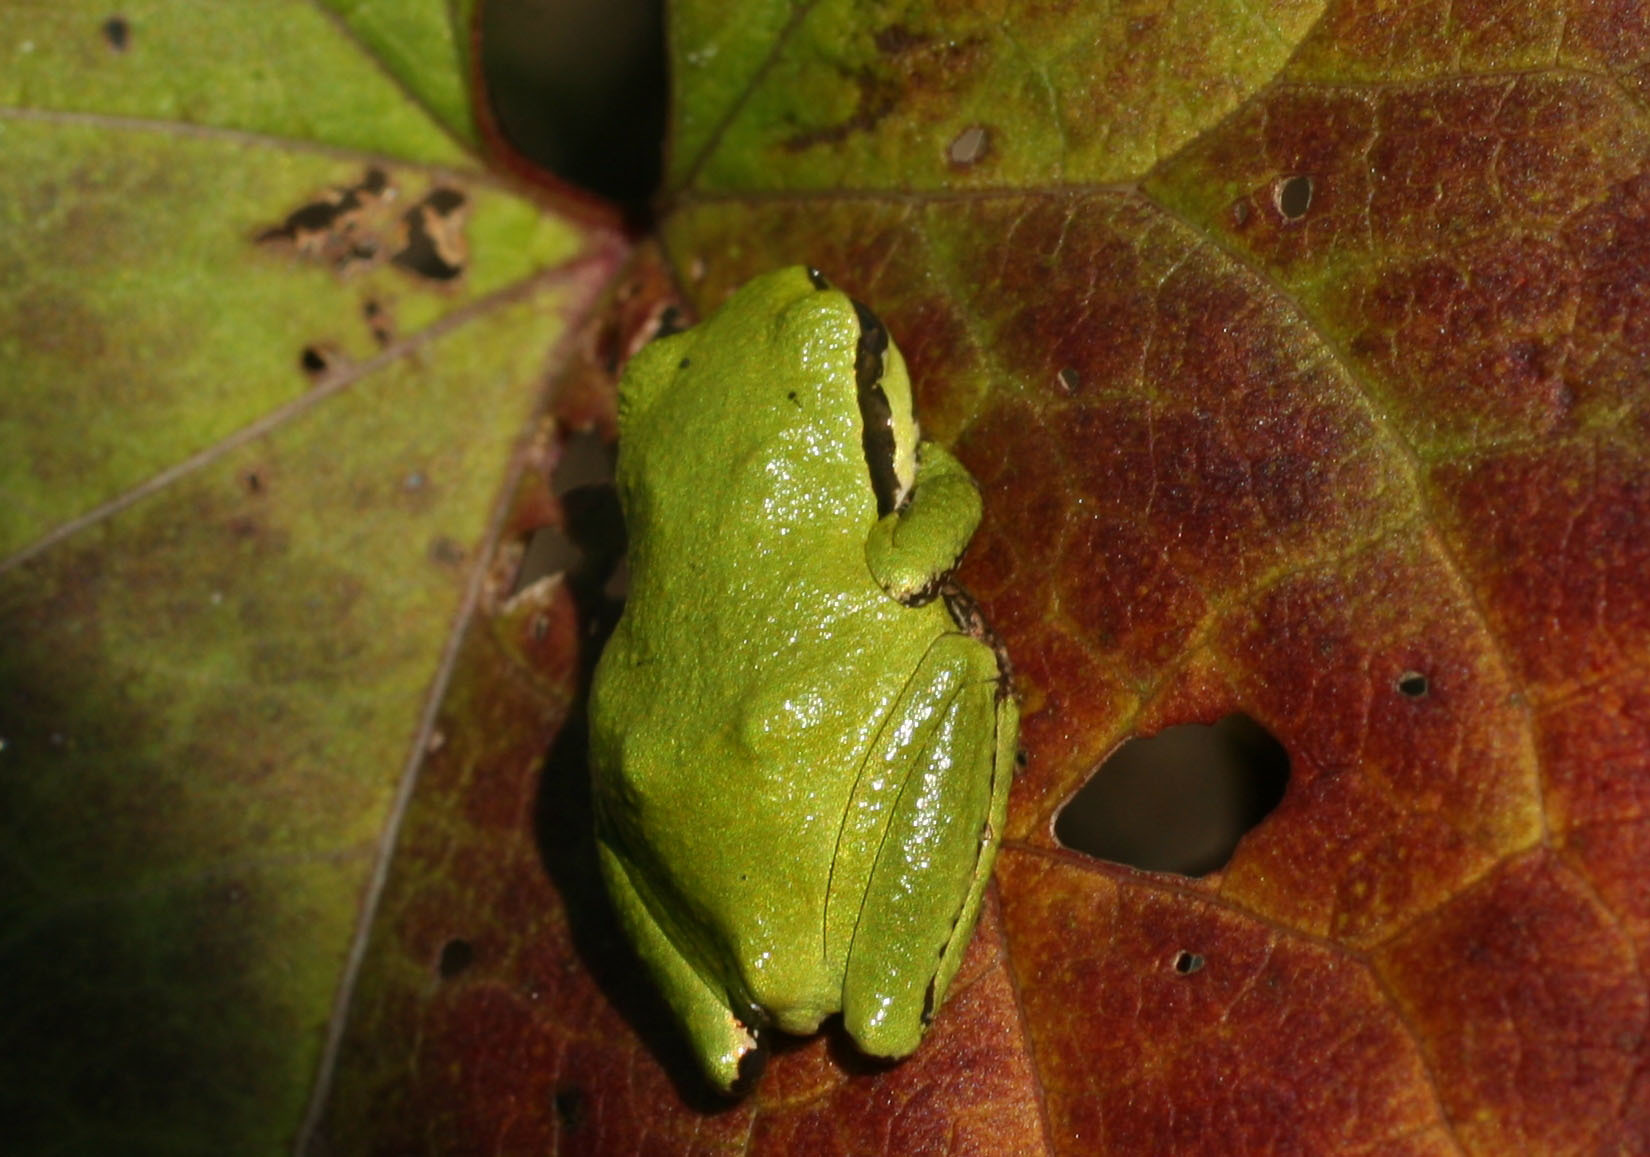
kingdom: Animalia
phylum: Chordata
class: Amphibia
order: Anura
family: Hylidae
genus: Pseudacris
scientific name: Pseudacris regilla
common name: Pacific chorus frog
